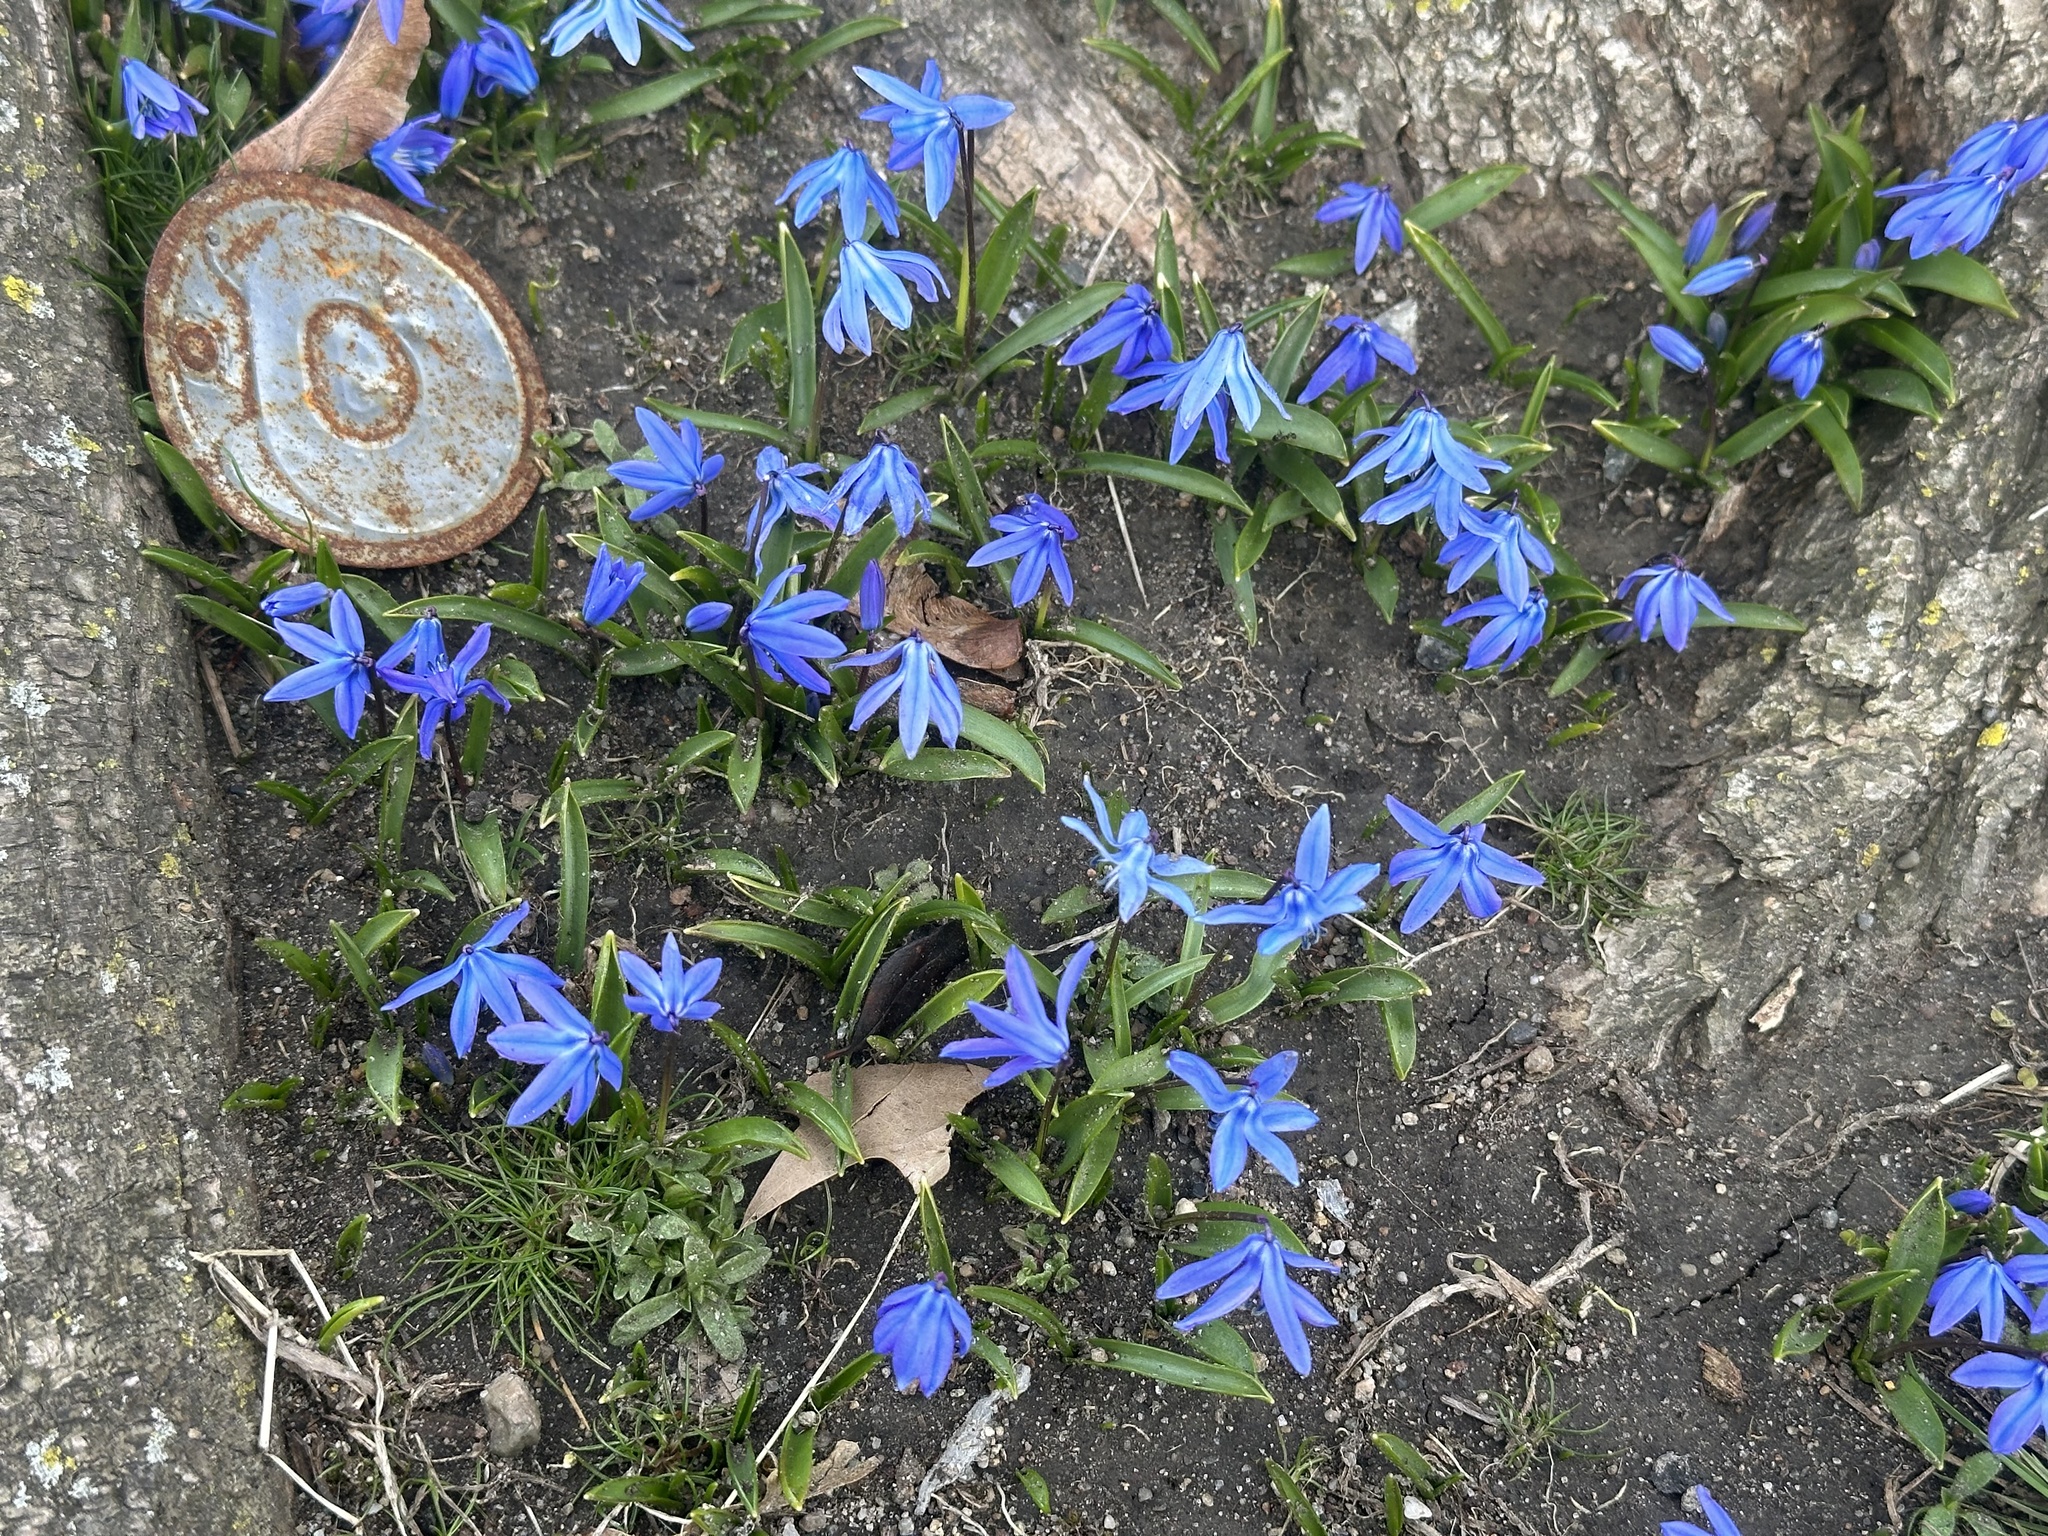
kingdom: Plantae
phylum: Tracheophyta
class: Liliopsida
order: Asparagales
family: Asparagaceae
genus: Scilla
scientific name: Scilla siberica
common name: Siberian squill
